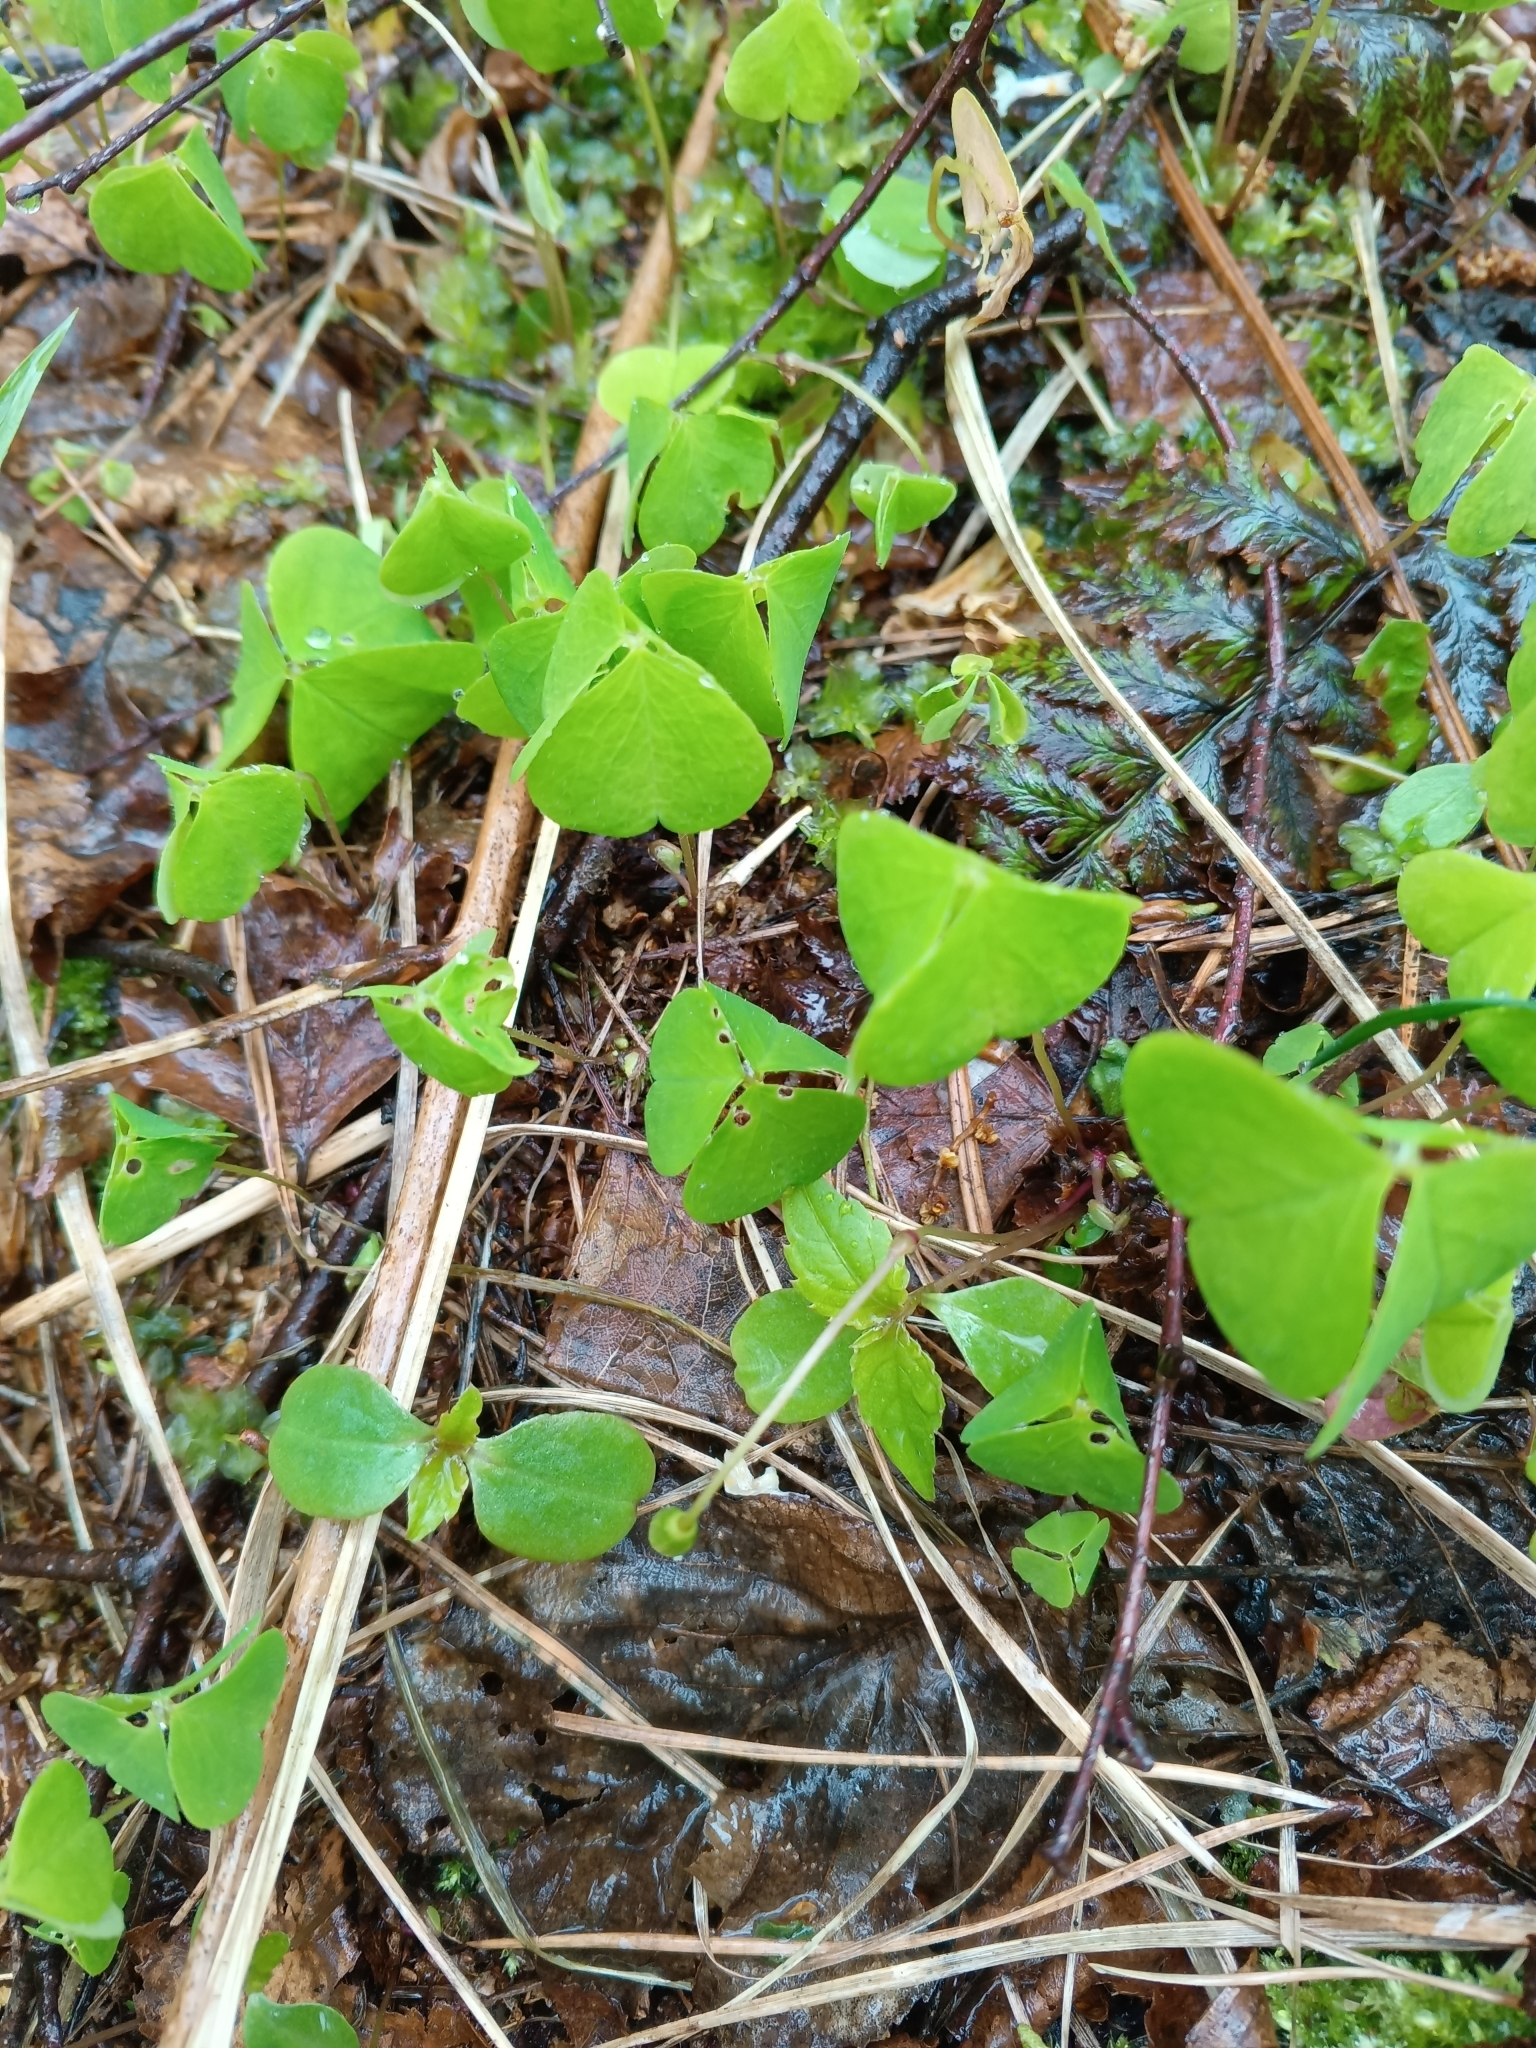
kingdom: Plantae
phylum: Tracheophyta
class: Magnoliopsida
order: Oxalidales
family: Oxalidaceae
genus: Oxalis
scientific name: Oxalis acetosella
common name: Wood-sorrel
